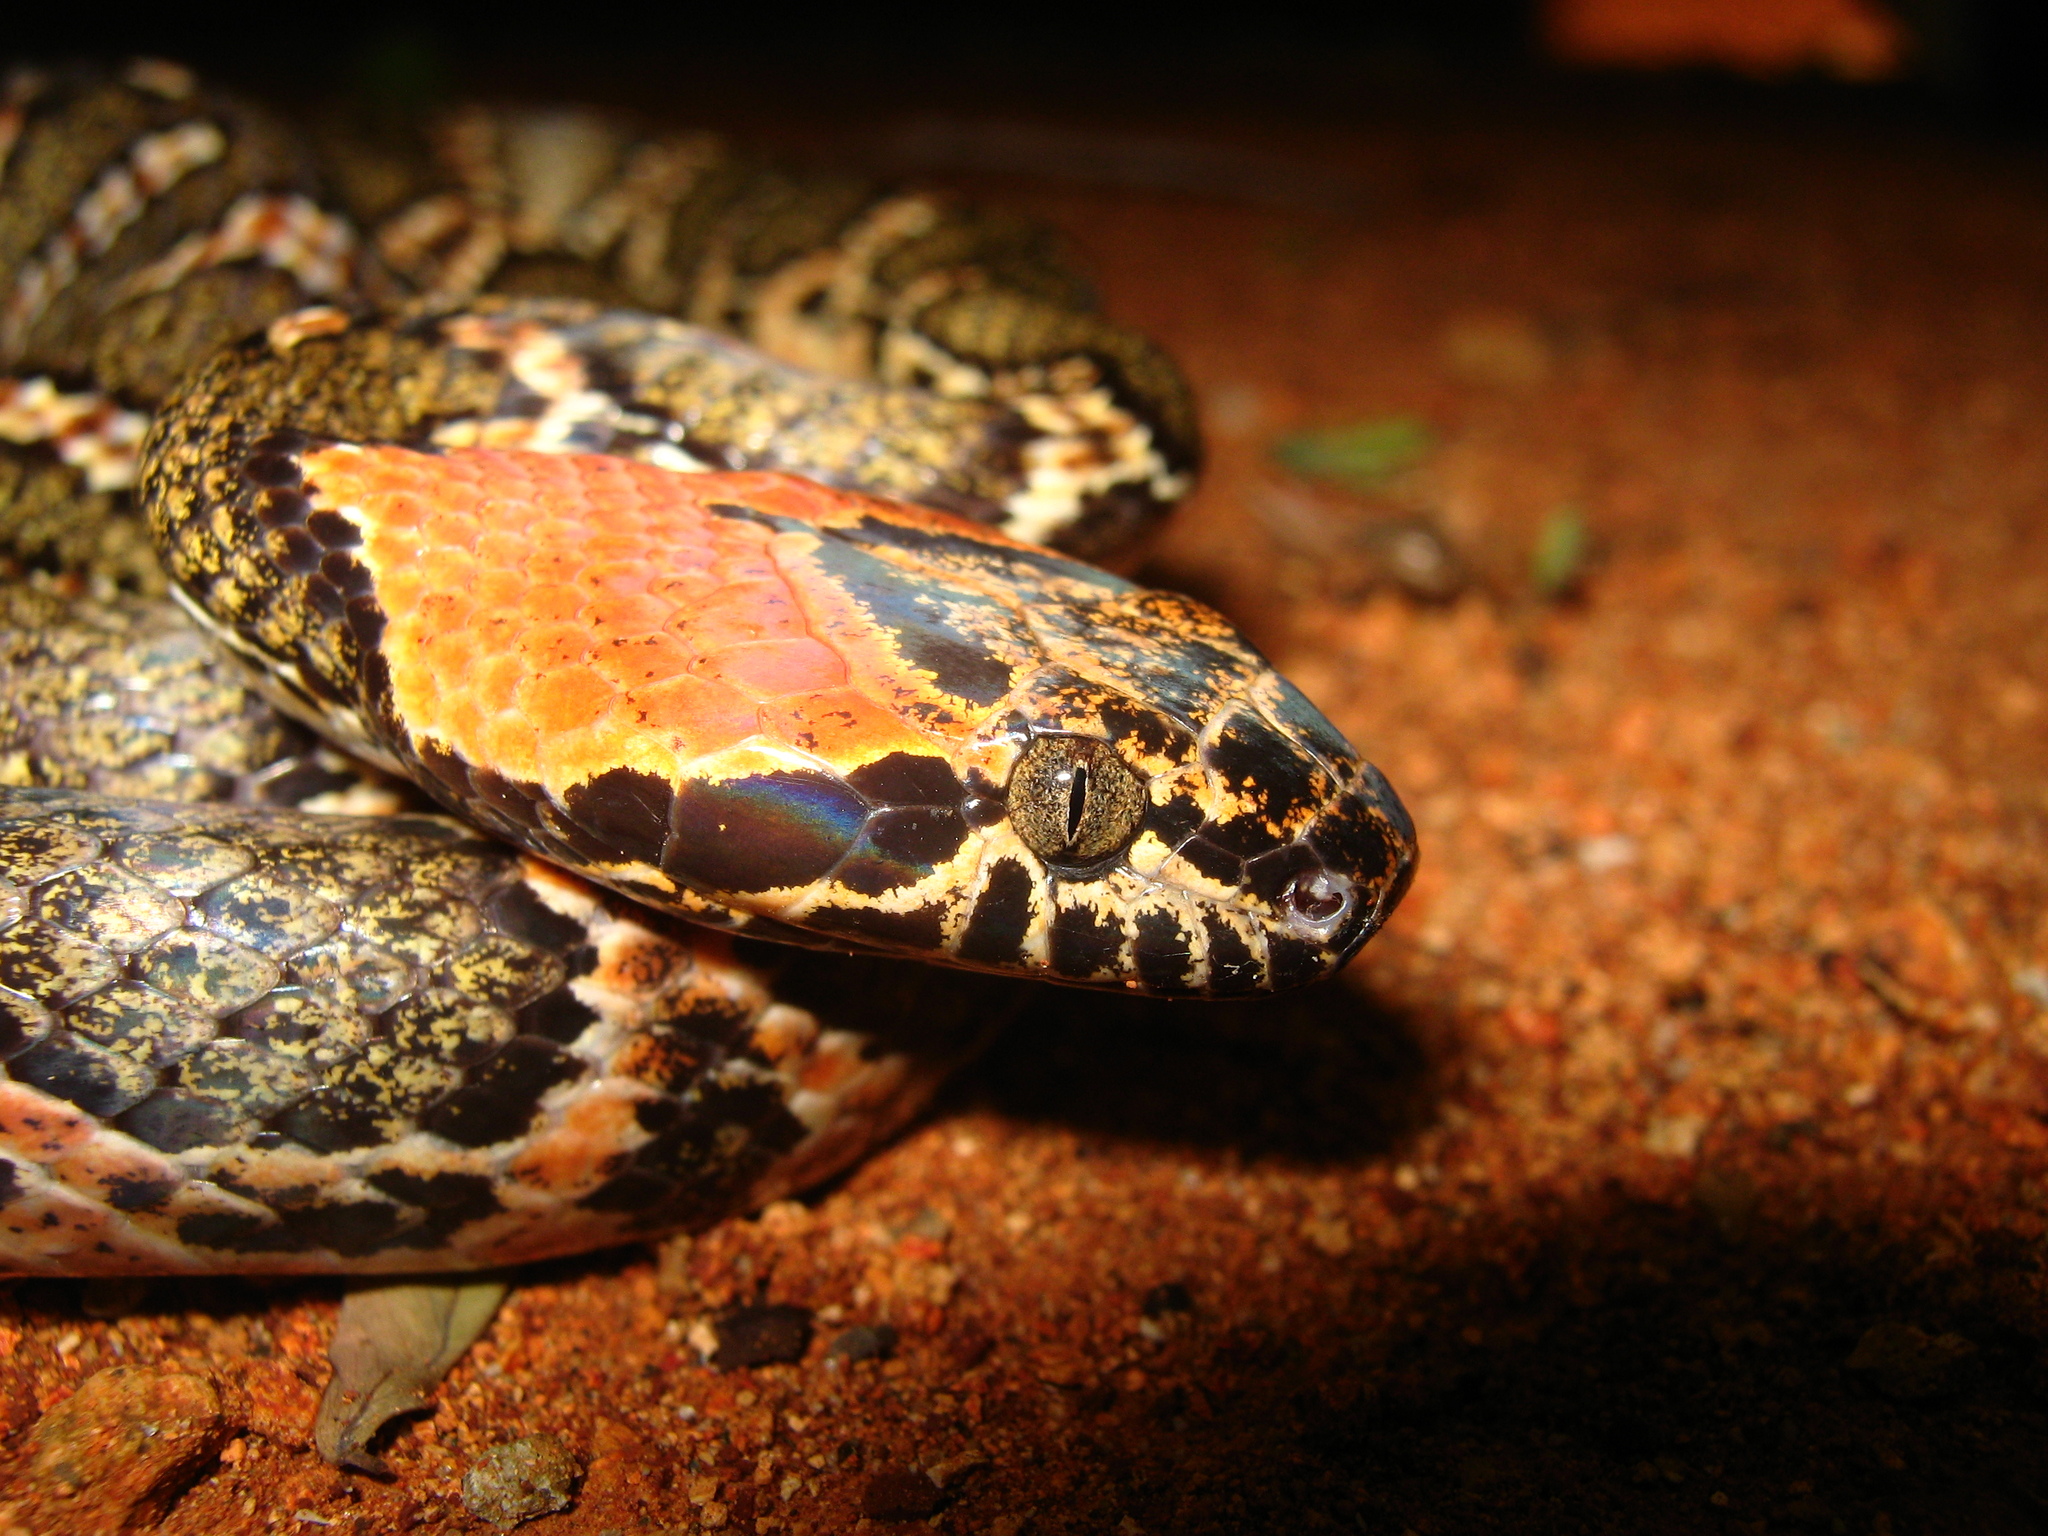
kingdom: Animalia
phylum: Chordata
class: Squamata
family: Colubridae
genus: Leptodeira
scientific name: Leptodeira uribei
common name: Uribe's false cat-eyed snake
